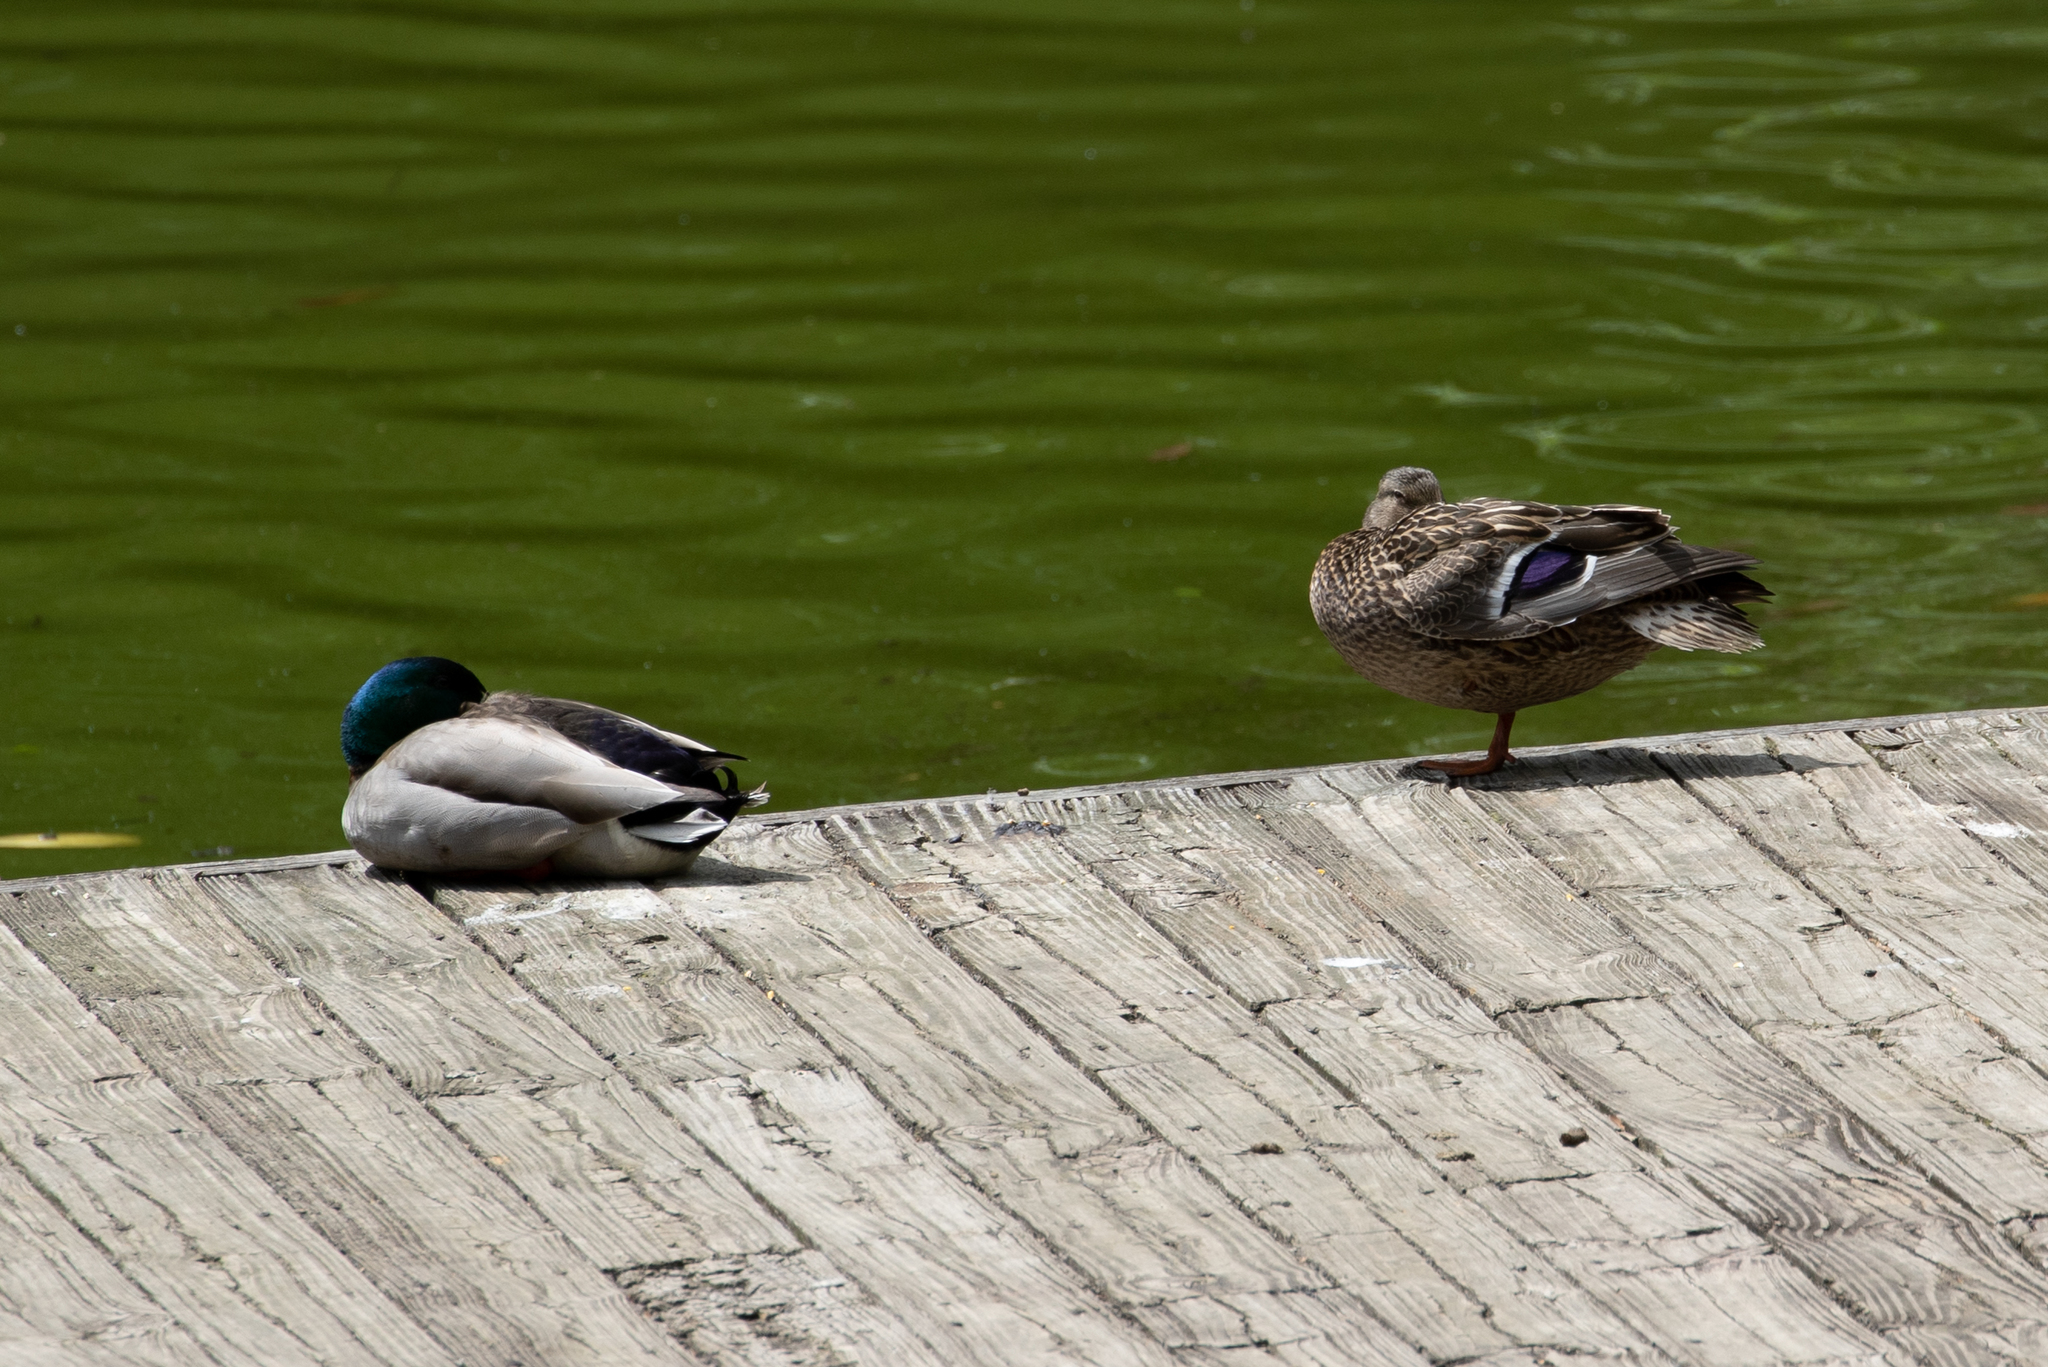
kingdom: Animalia
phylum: Chordata
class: Aves
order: Anseriformes
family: Anatidae
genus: Anas
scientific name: Anas platyrhynchos
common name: Mallard
